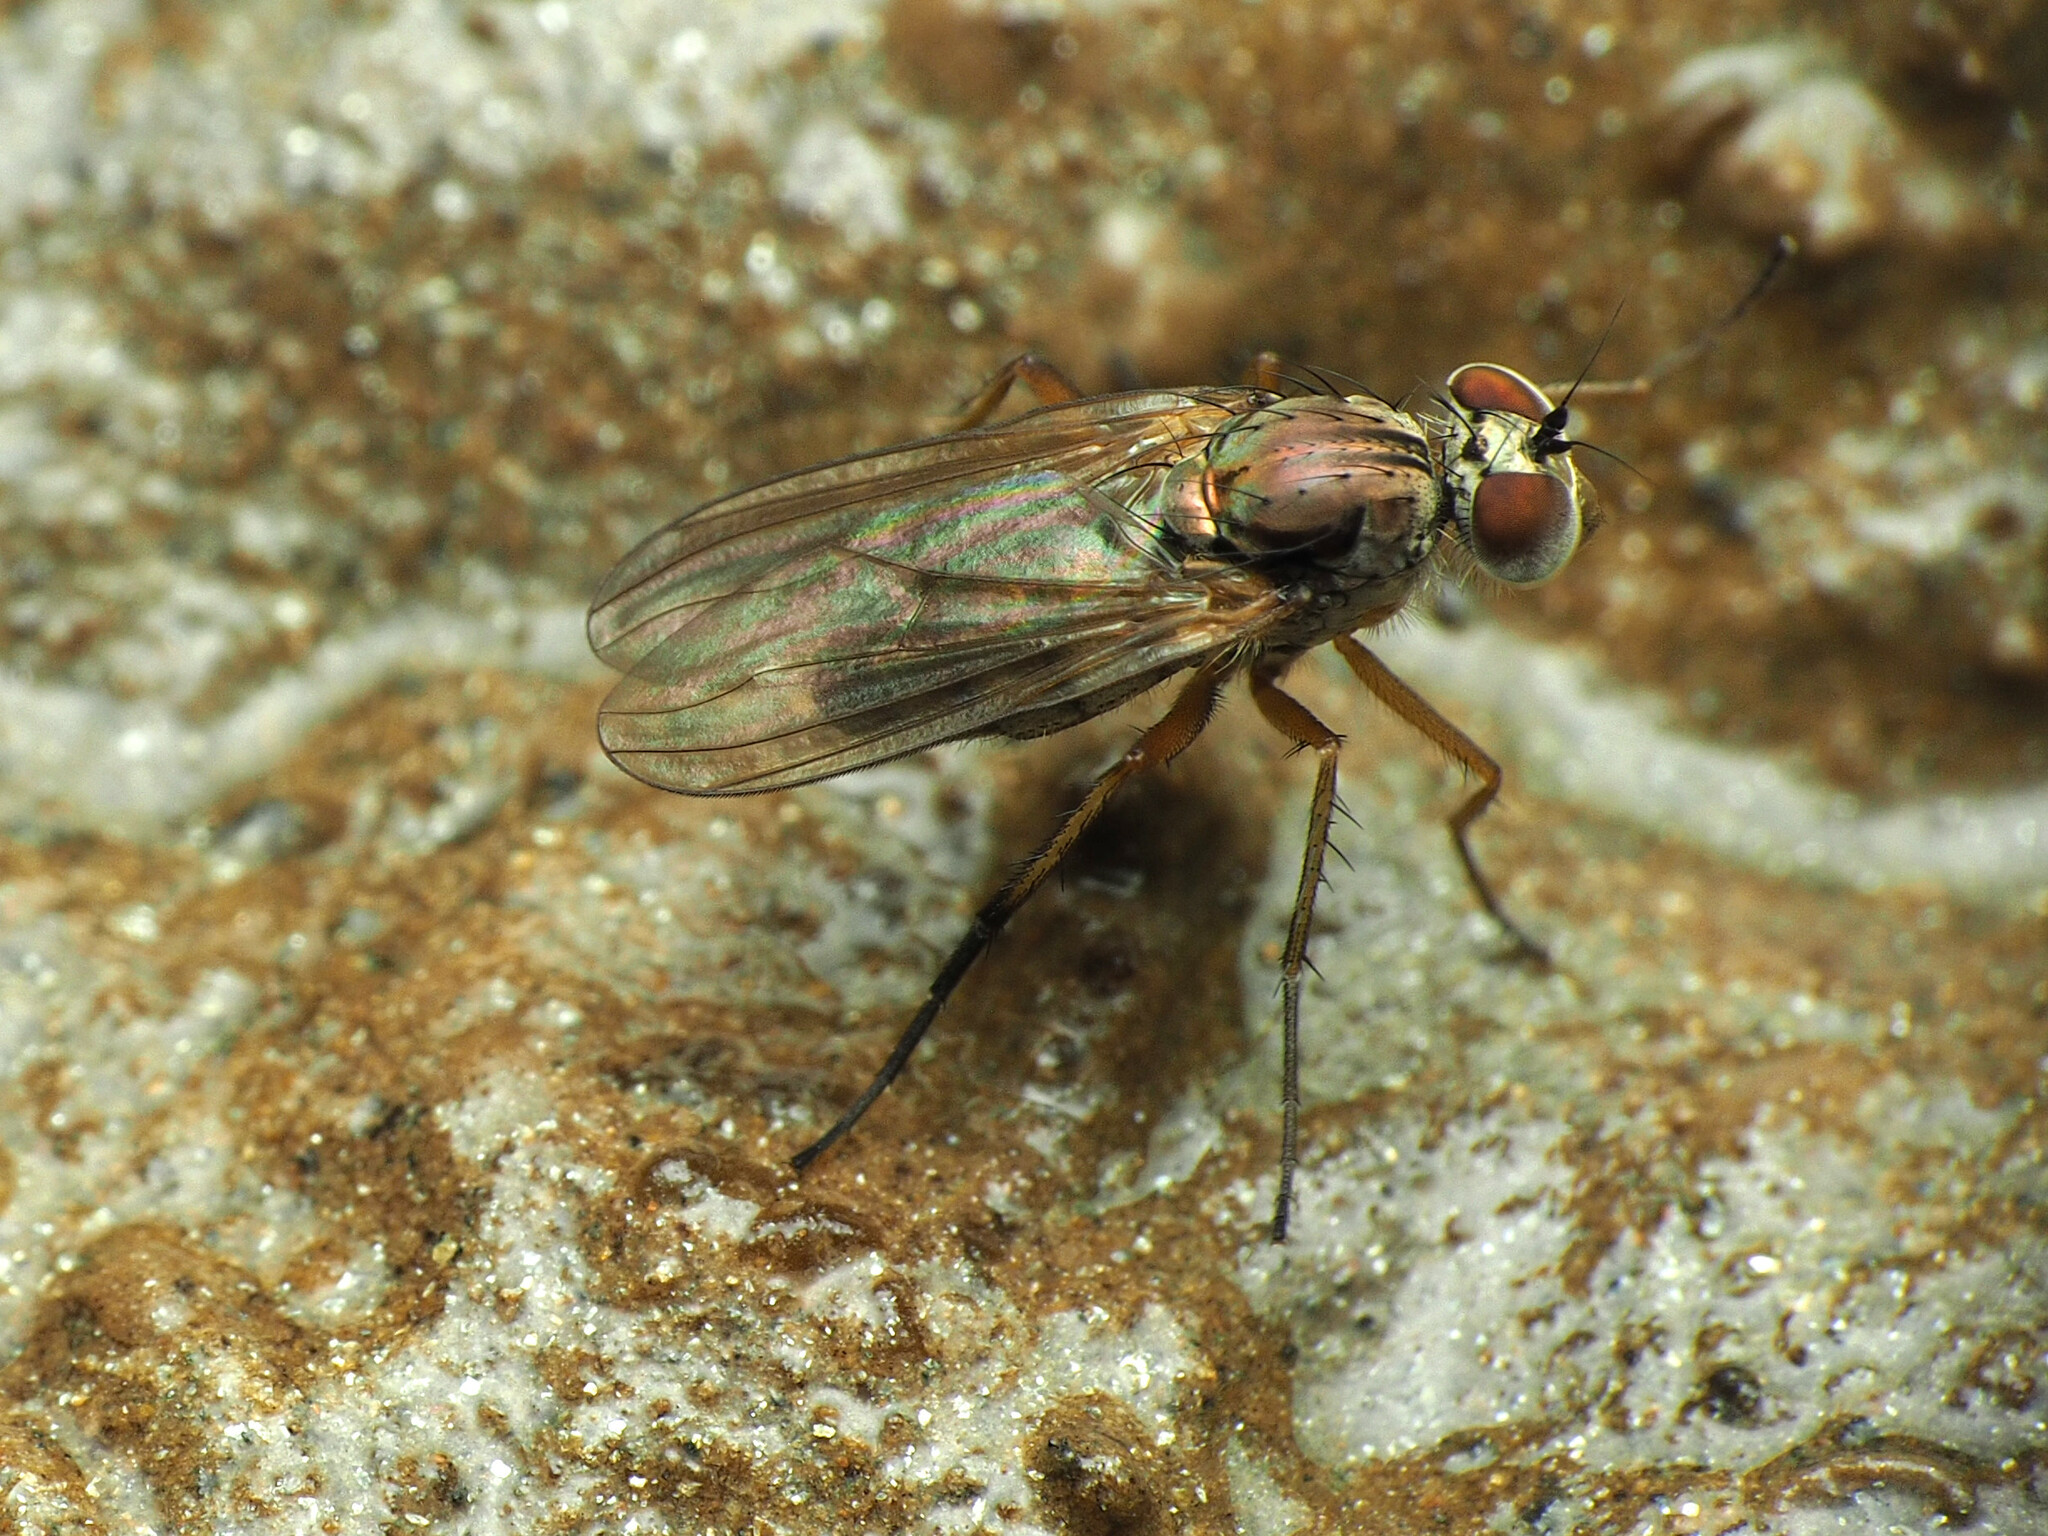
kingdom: Animalia
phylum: Arthropoda
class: Insecta
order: Diptera
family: Dolichopodidae
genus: Rhaphium
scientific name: Rhaphium vanduzeei
